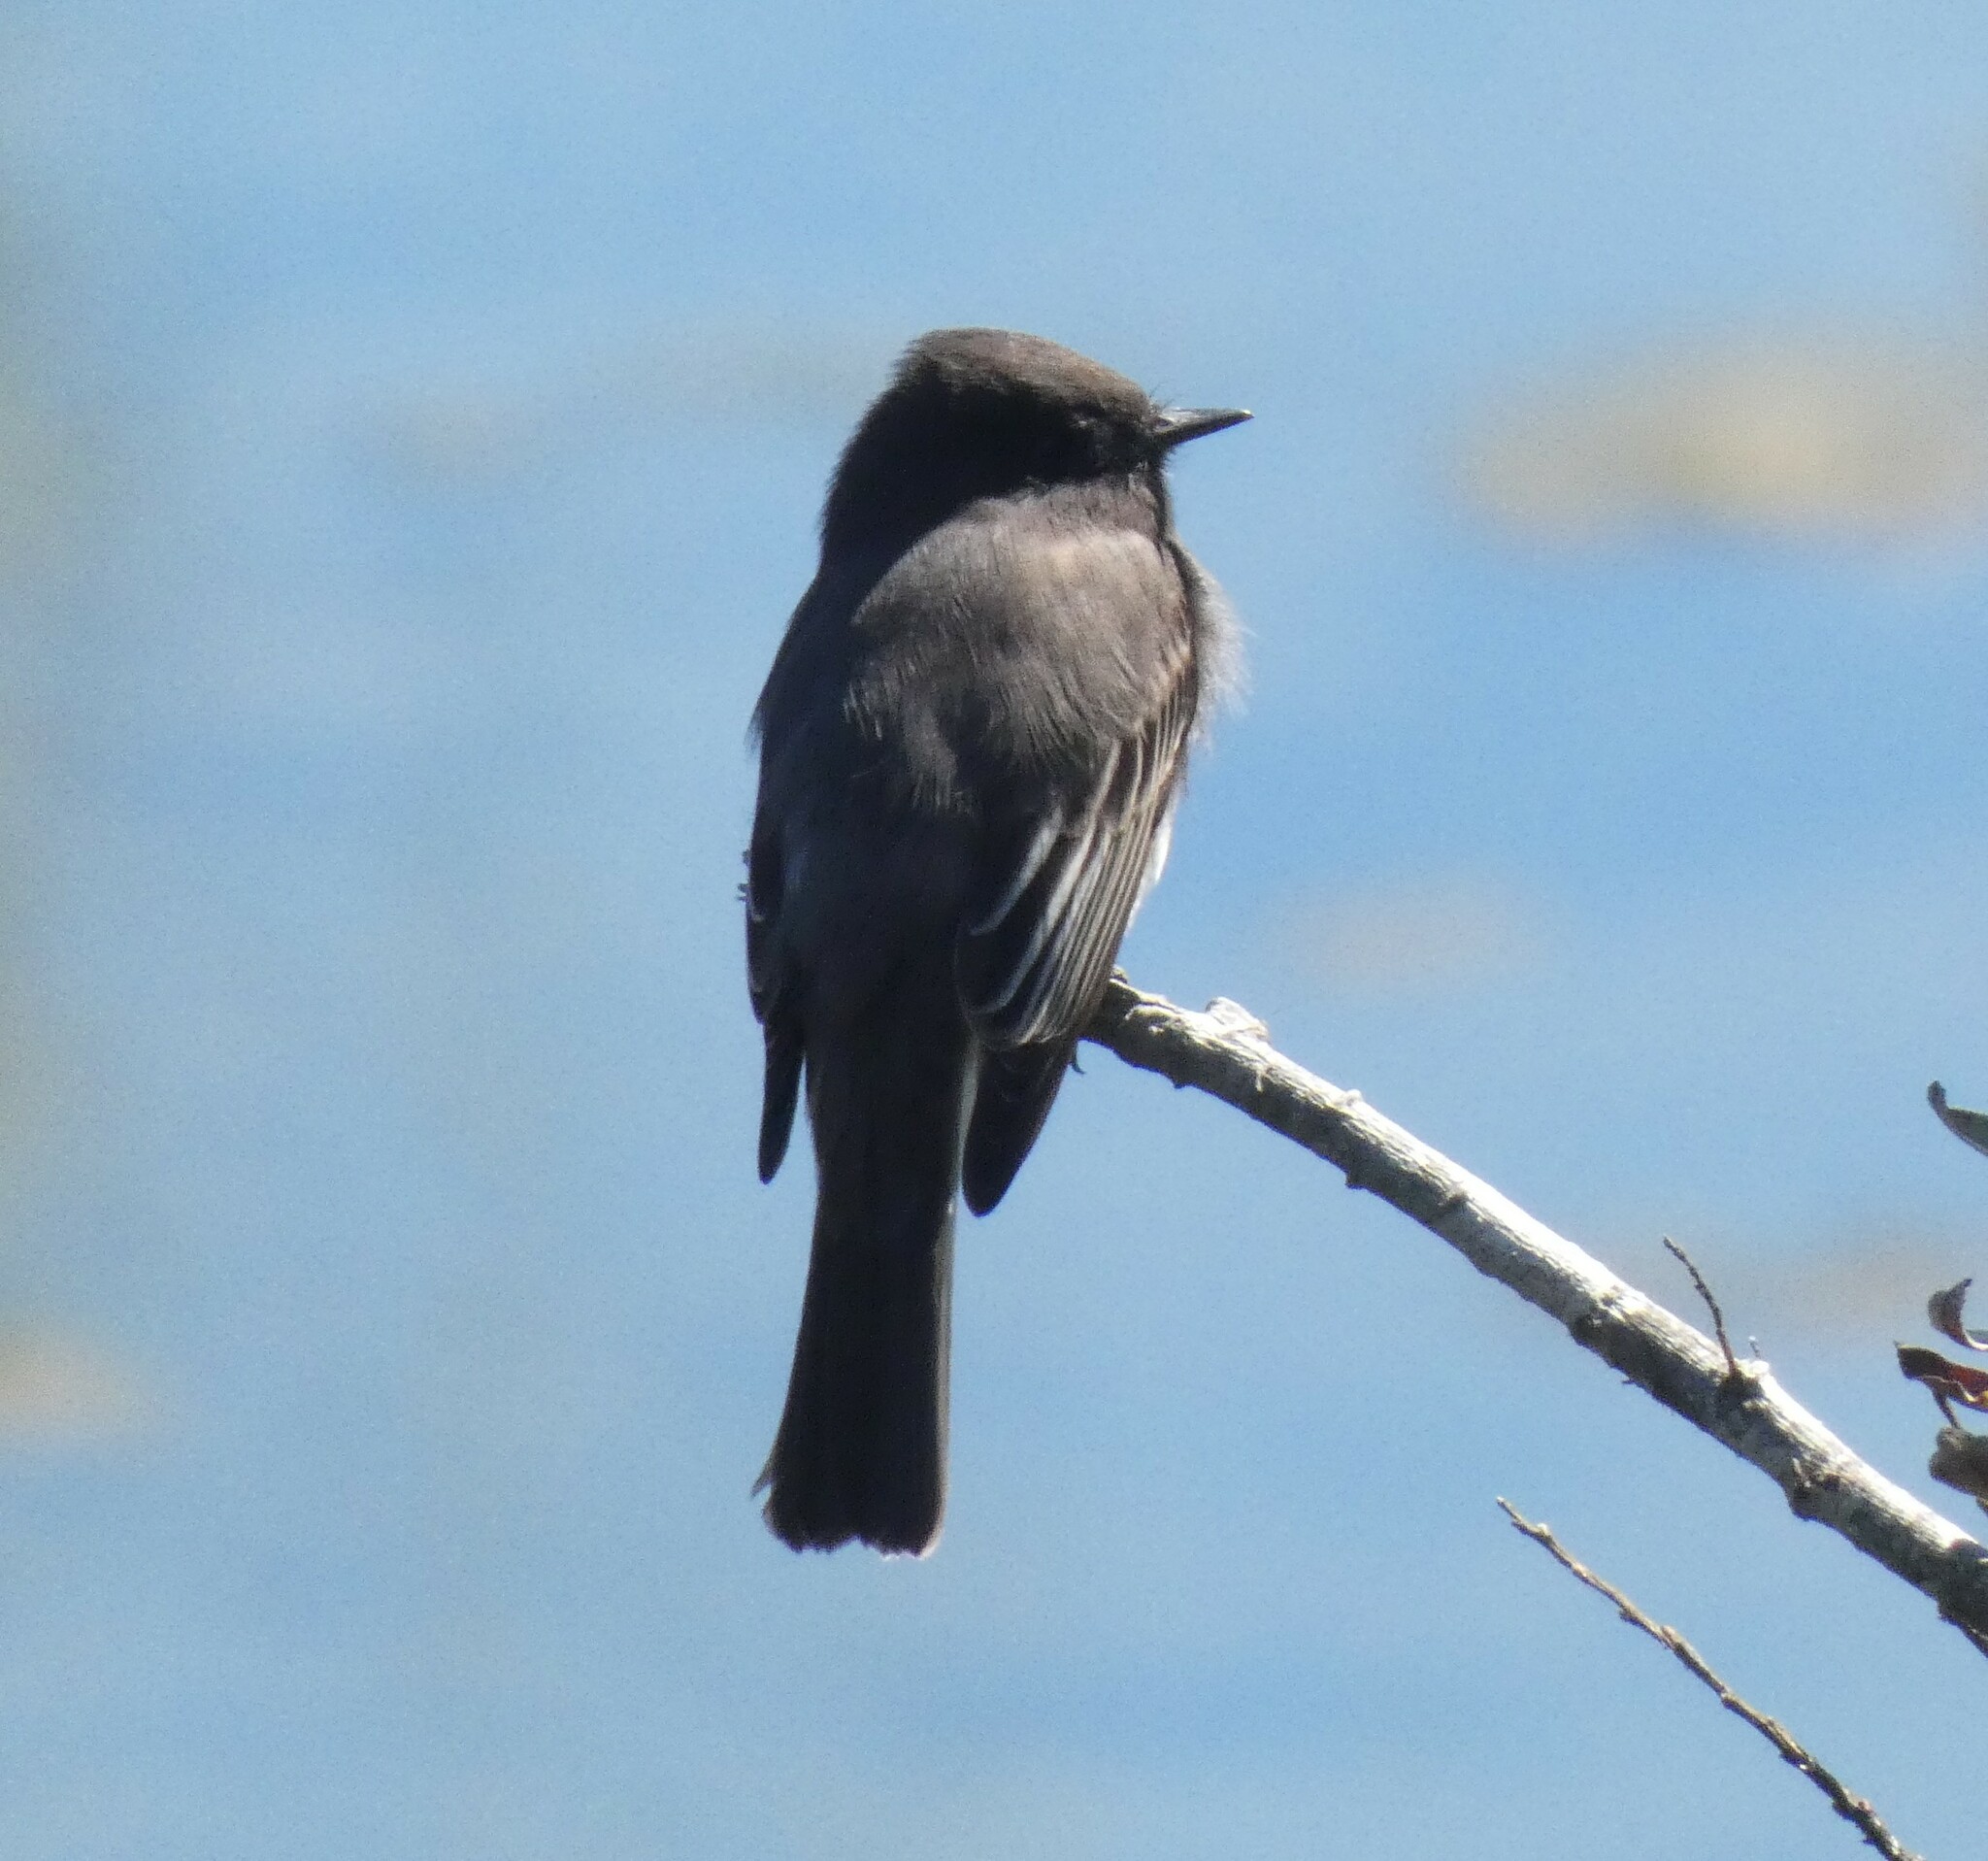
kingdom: Animalia
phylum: Chordata
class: Aves
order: Passeriformes
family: Tyrannidae
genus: Sayornis
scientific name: Sayornis nigricans
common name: Black phoebe
